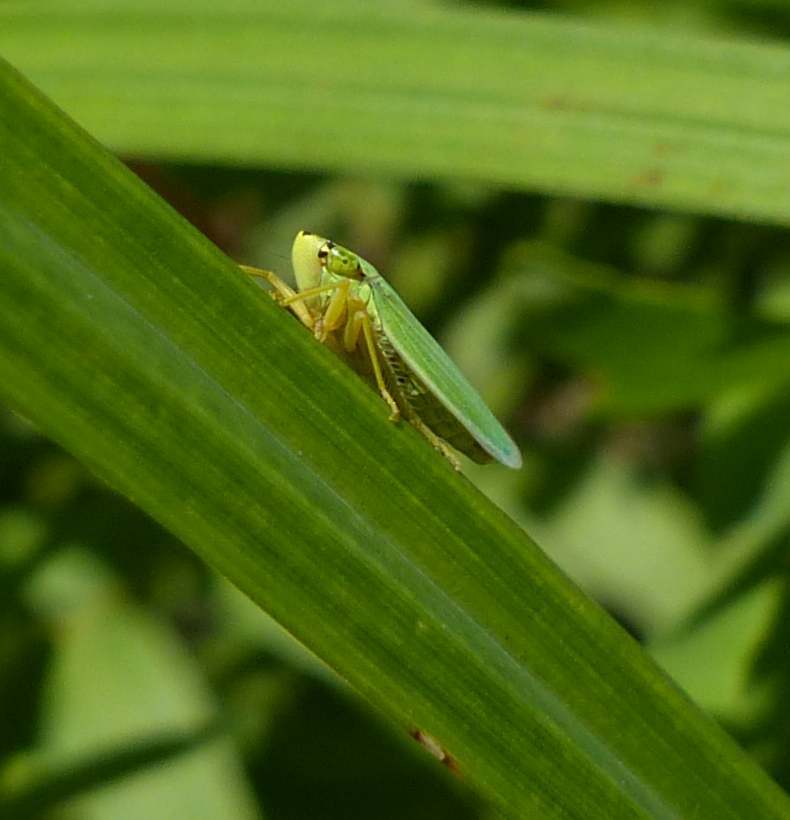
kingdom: Animalia
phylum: Arthropoda
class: Insecta
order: Hemiptera
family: Cicadellidae
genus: Draeculacephala
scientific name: Draeculacephala noveboracensis
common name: Black-ledged sharpshooter
